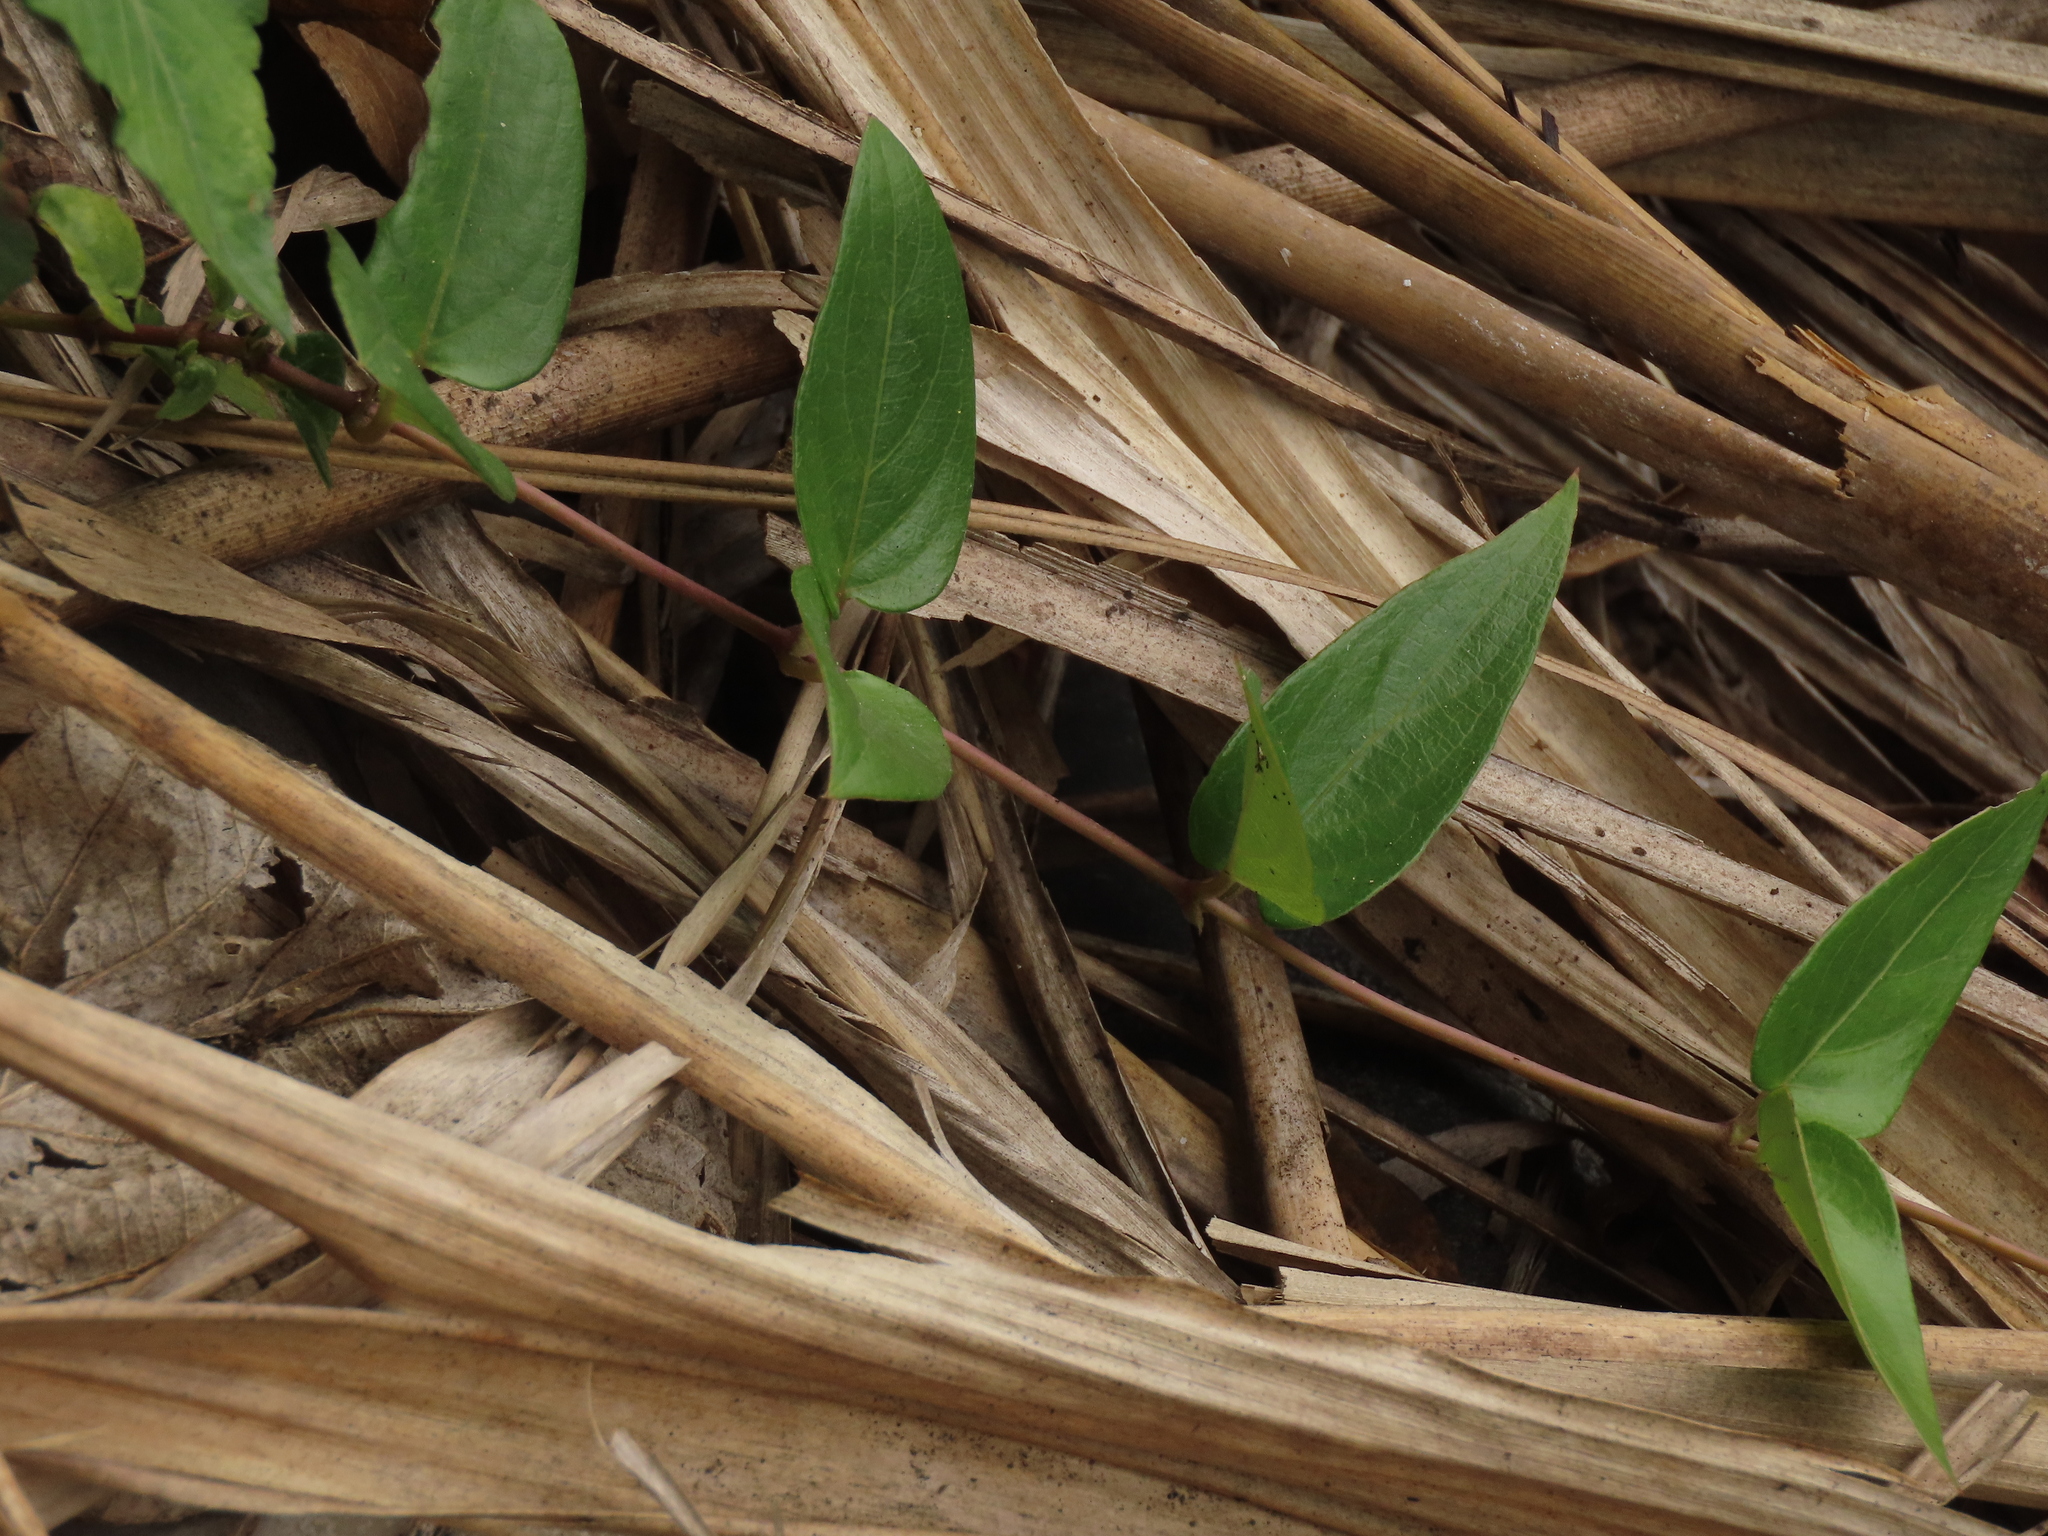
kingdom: Plantae
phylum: Tracheophyta
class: Magnoliopsida
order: Gentianales
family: Rubiaceae
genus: Paederia
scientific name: Paederia foetida
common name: Stinkvine
